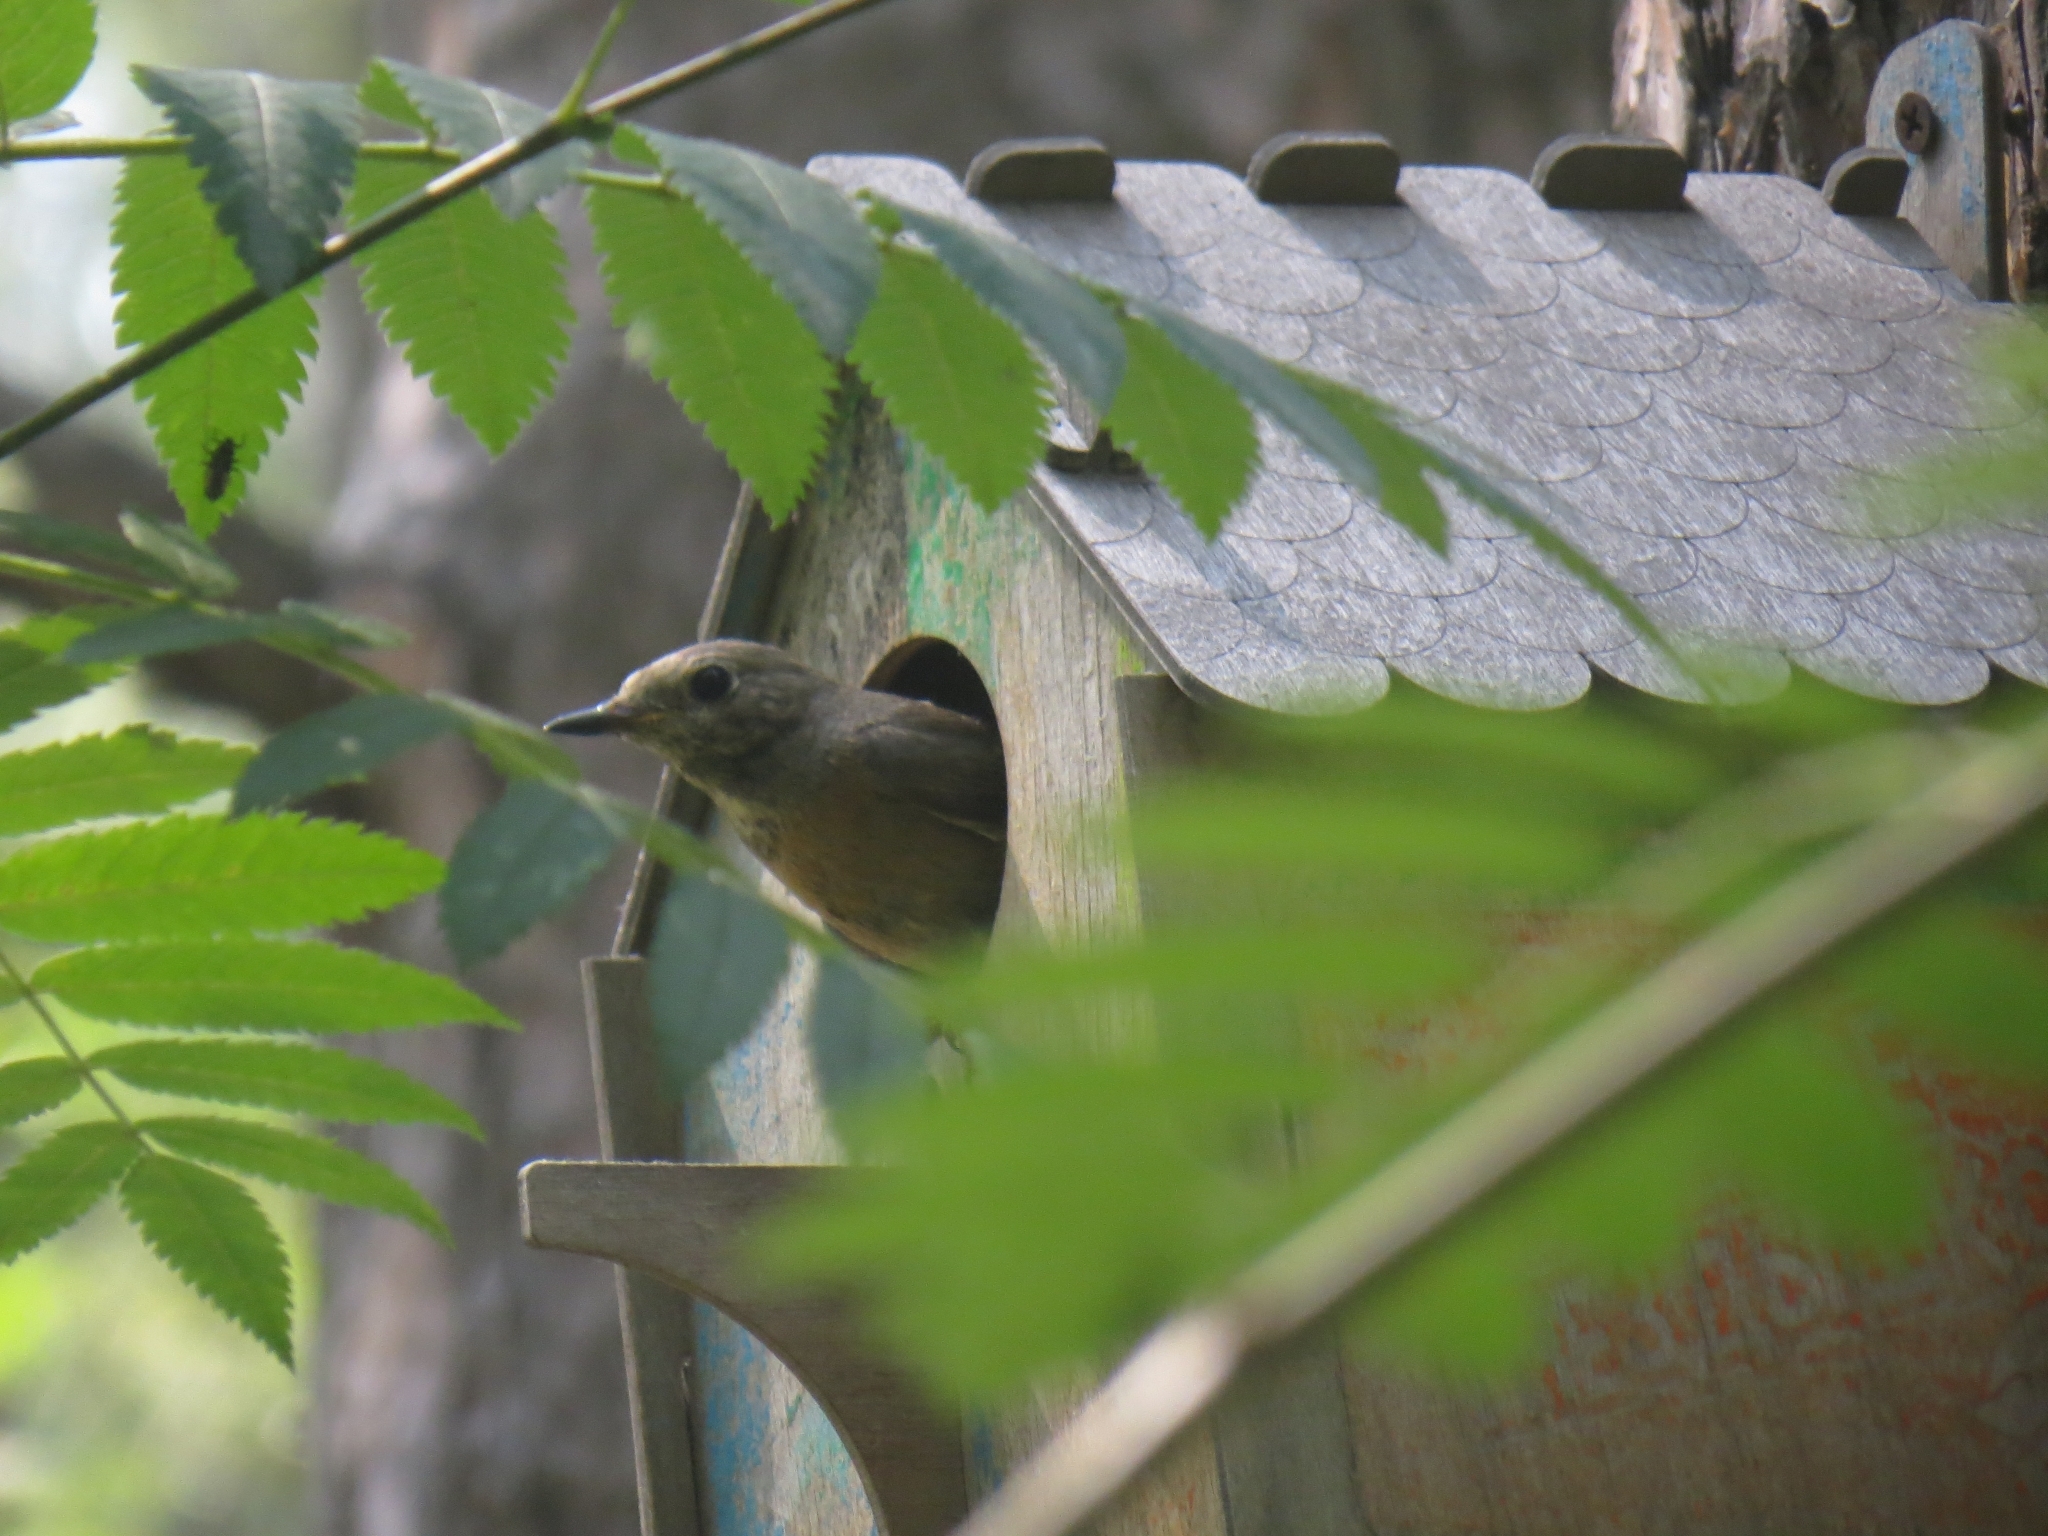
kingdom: Animalia
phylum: Chordata
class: Aves
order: Passeriformes
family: Muscicapidae
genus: Phoenicurus
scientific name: Phoenicurus phoenicurus
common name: Common redstart
